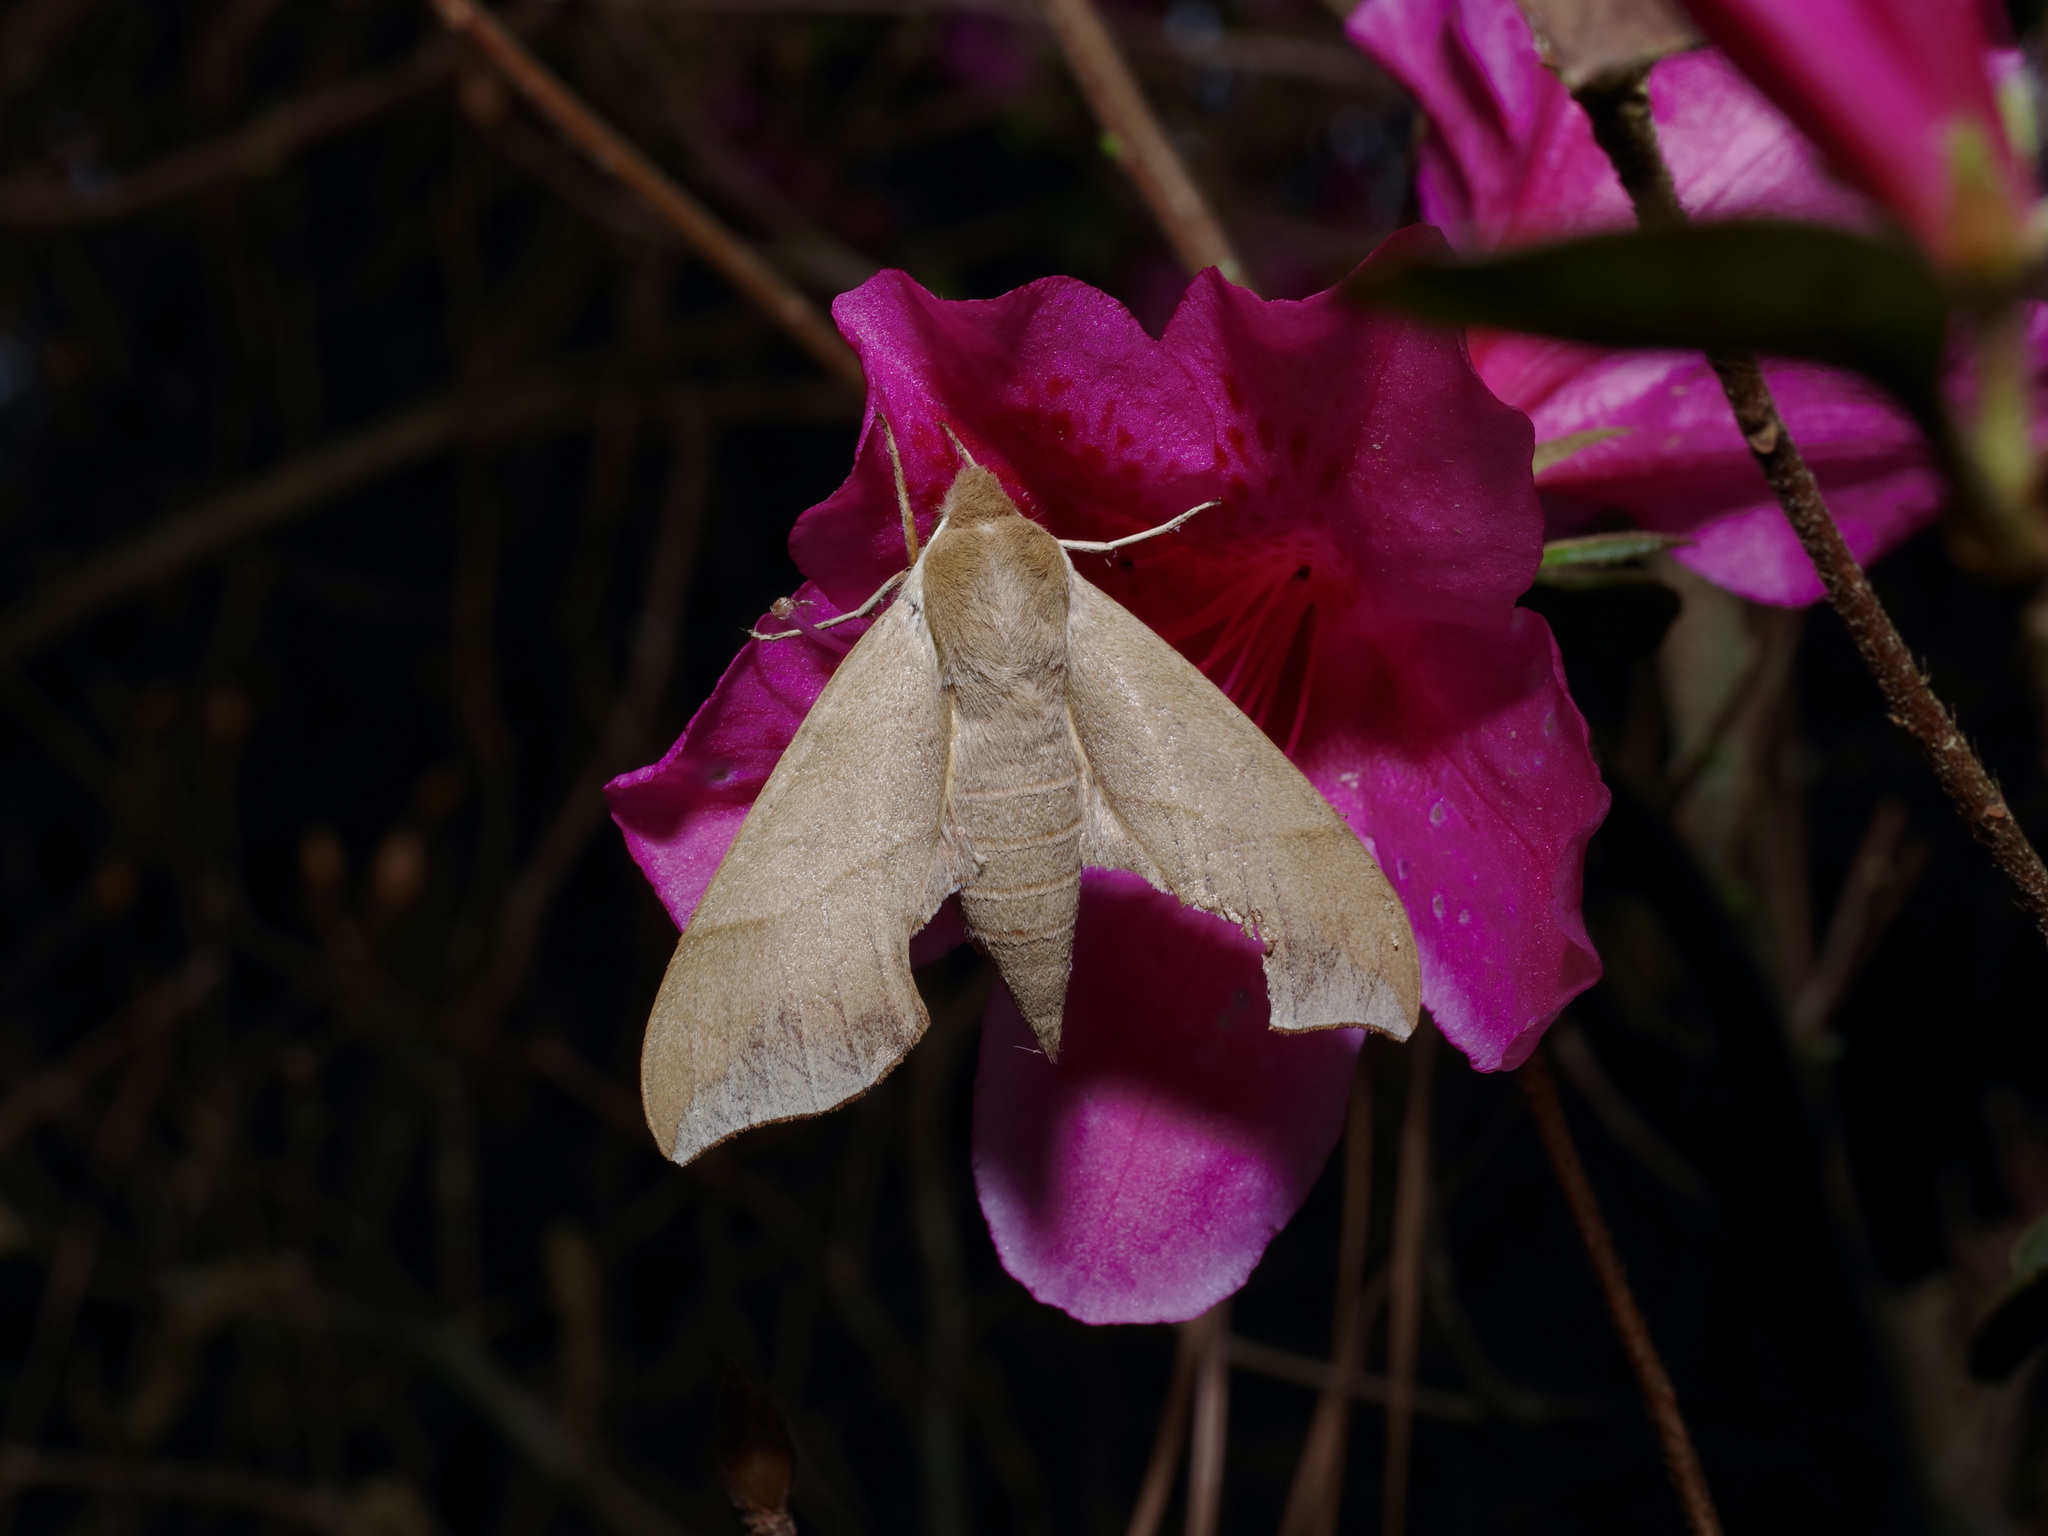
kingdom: Animalia
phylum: Arthropoda
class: Insecta
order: Lepidoptera
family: Sphingidae
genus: Darapsa
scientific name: Darapsa myron
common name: Hog sphinx
